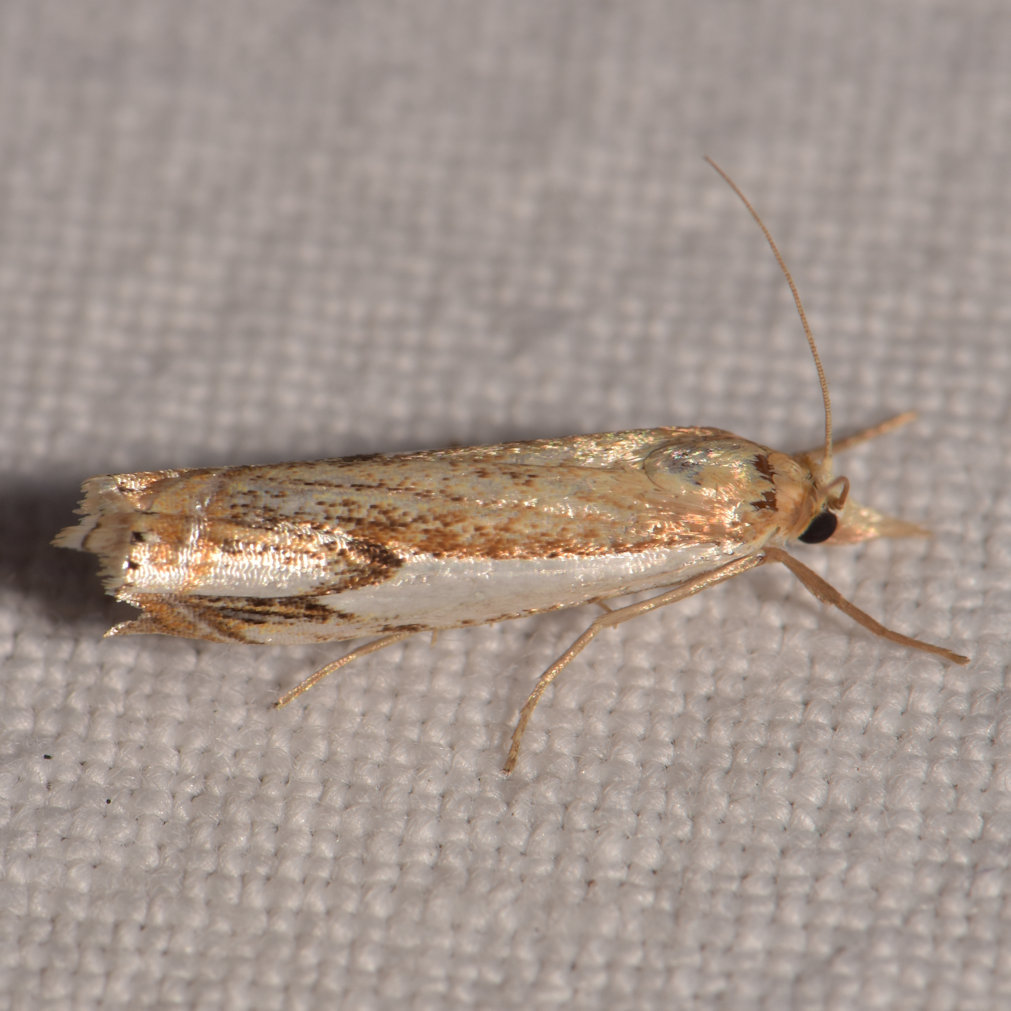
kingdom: Animalia
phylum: Arthropoda
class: Insecta
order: Lepidoptera
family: Crambidae
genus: Crambus
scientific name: Crambus agitatellus
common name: Double-banded grass-veneer
